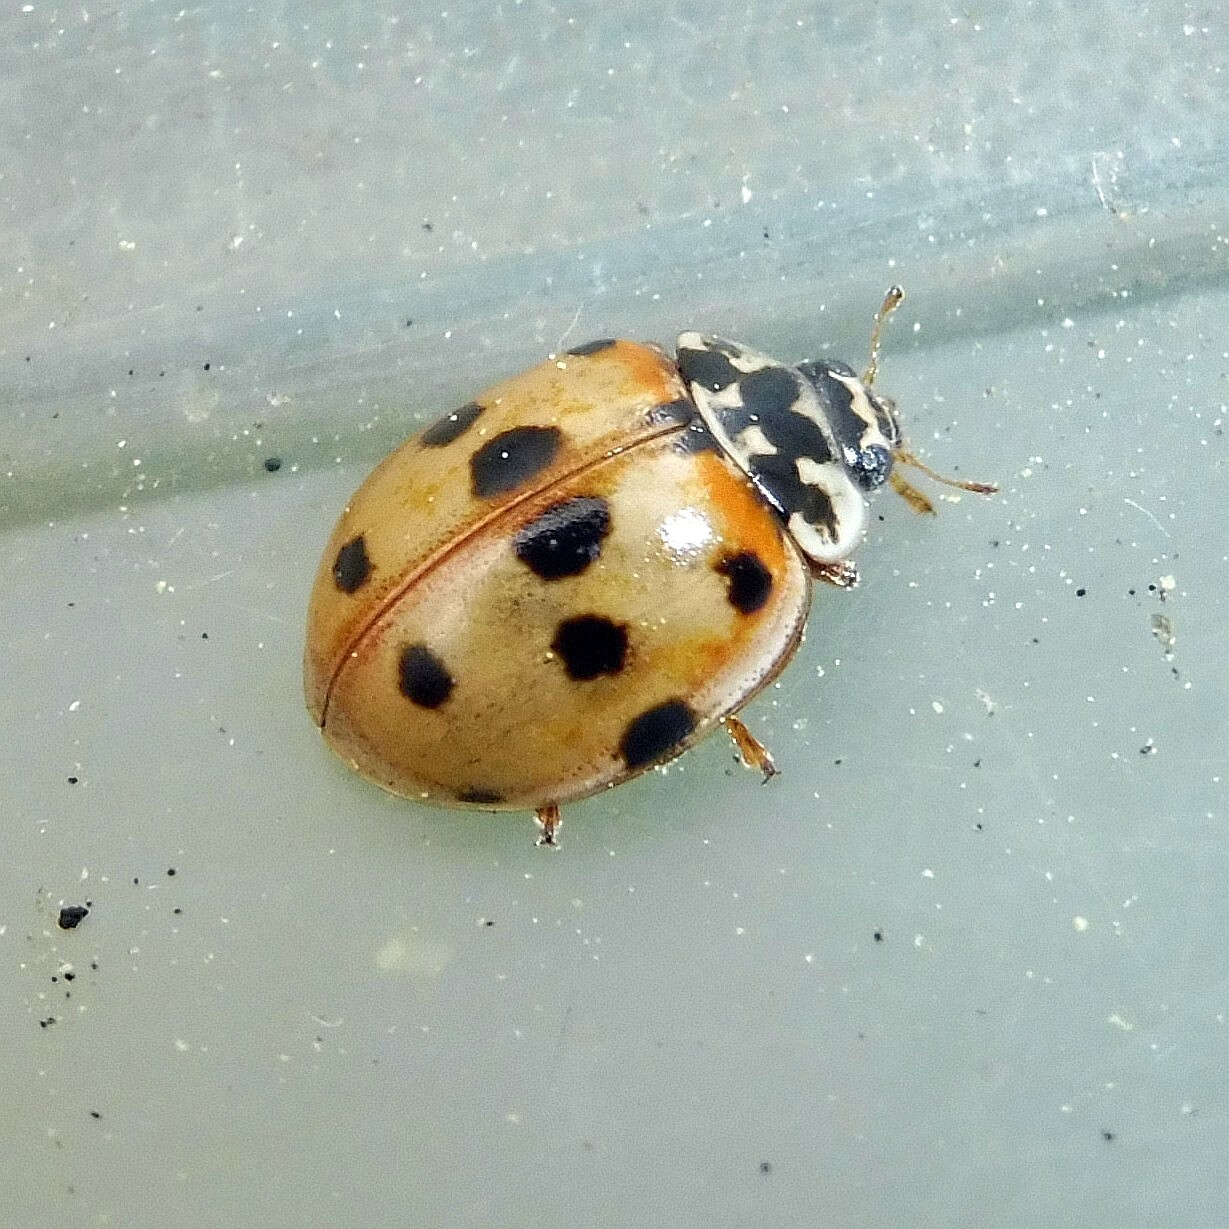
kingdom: Animalia
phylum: Arthropoda
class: Insecta
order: Coleoptera
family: Coccinellidae
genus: Adalia
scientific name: Adalia decempunctata
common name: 10-spot ladybird
